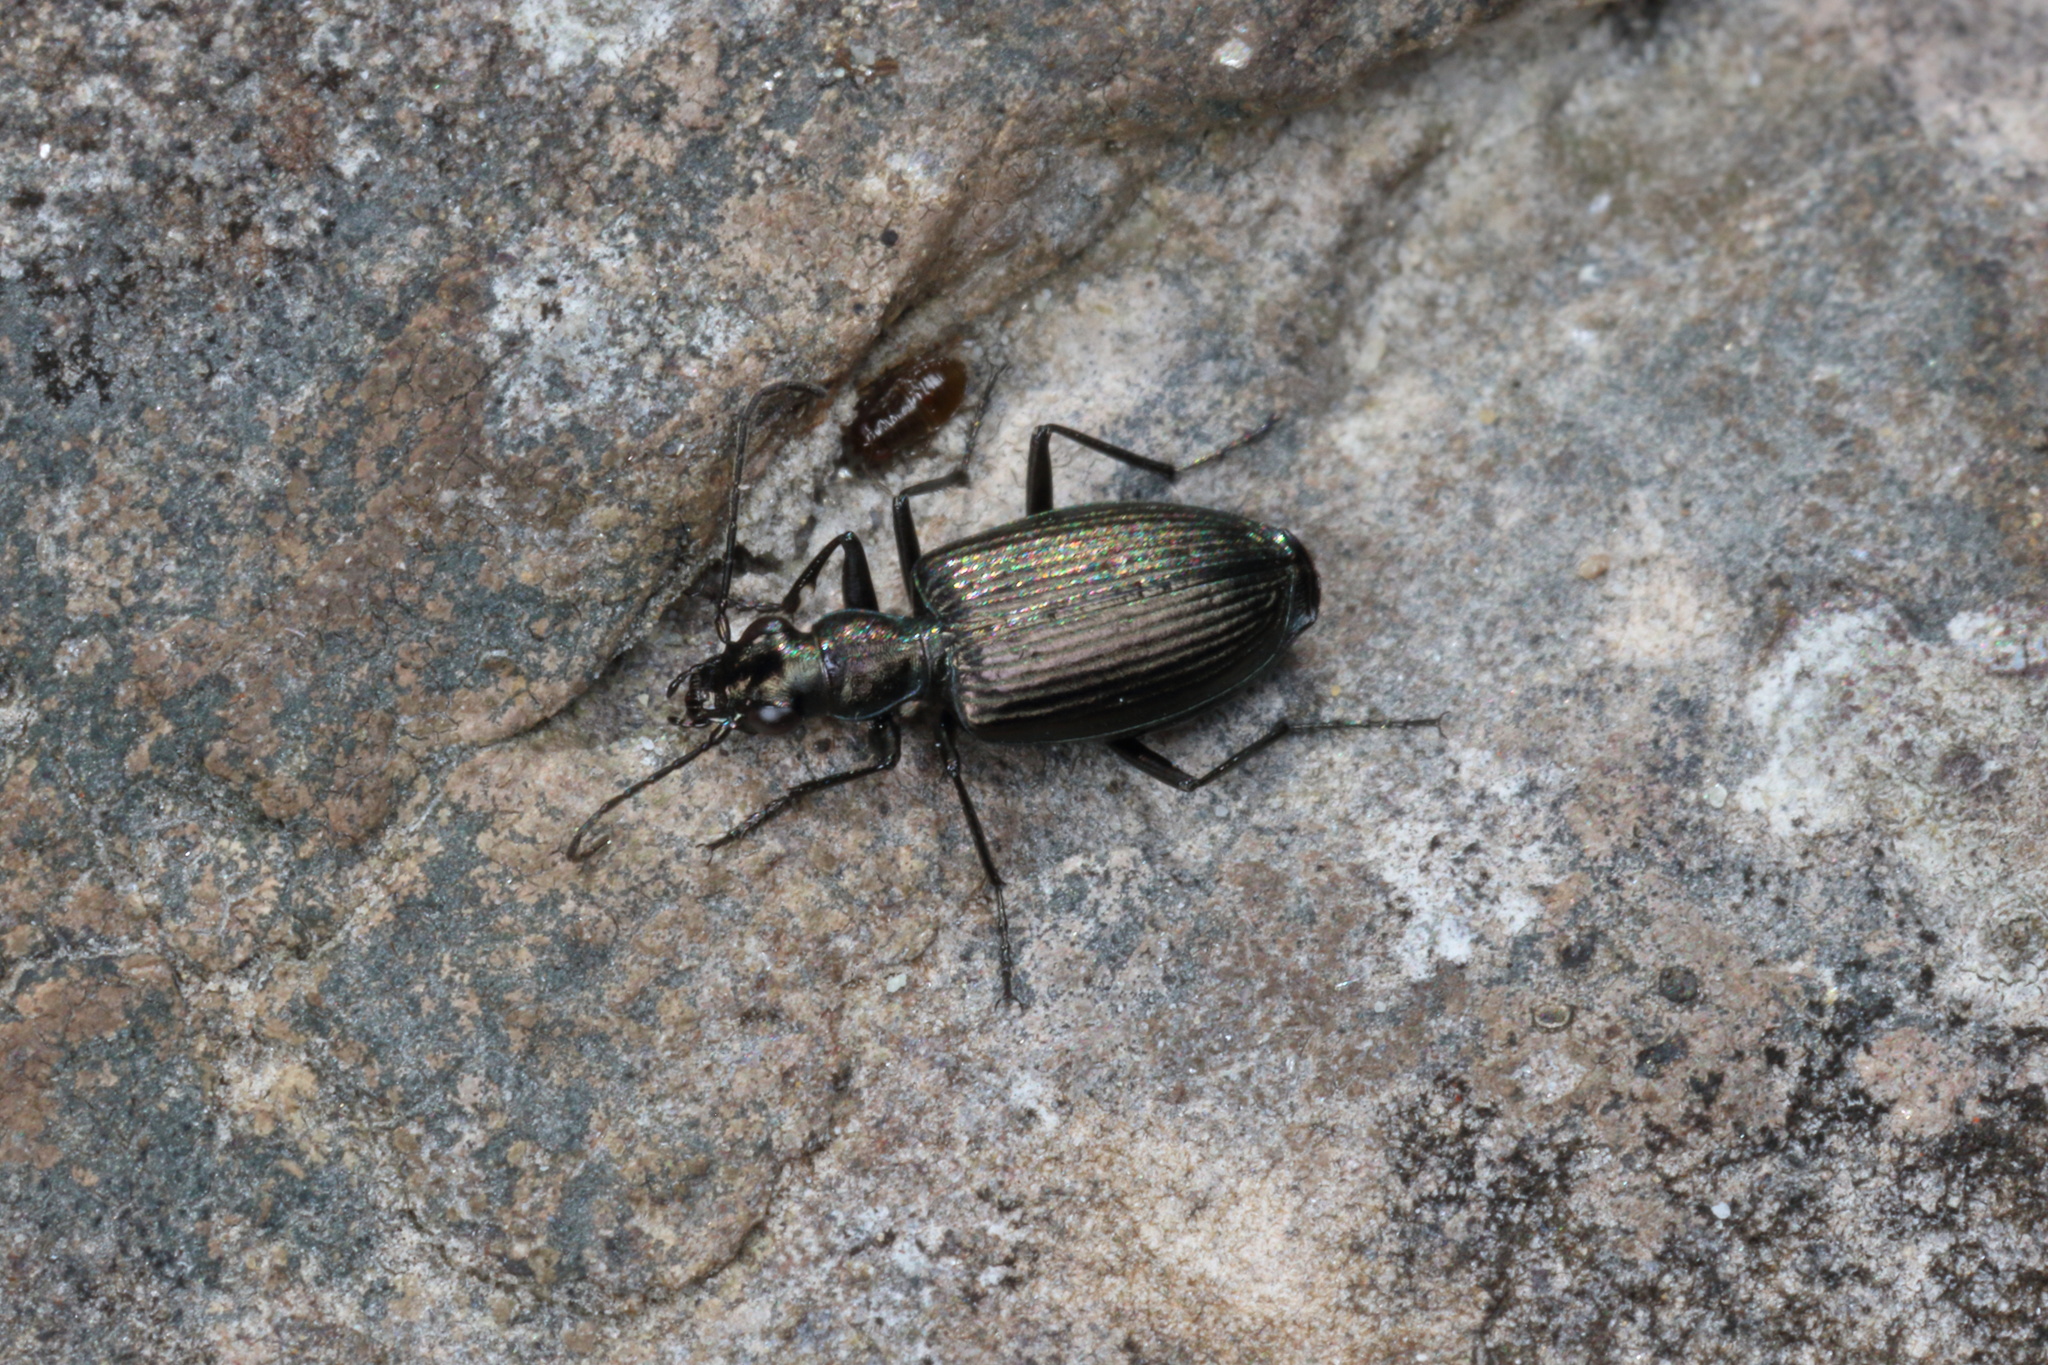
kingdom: Animalia
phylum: Arthropoda
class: Insecta
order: Coleoptera
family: Carabidae
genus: Actenonyx
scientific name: Actenonyx bembidioides
